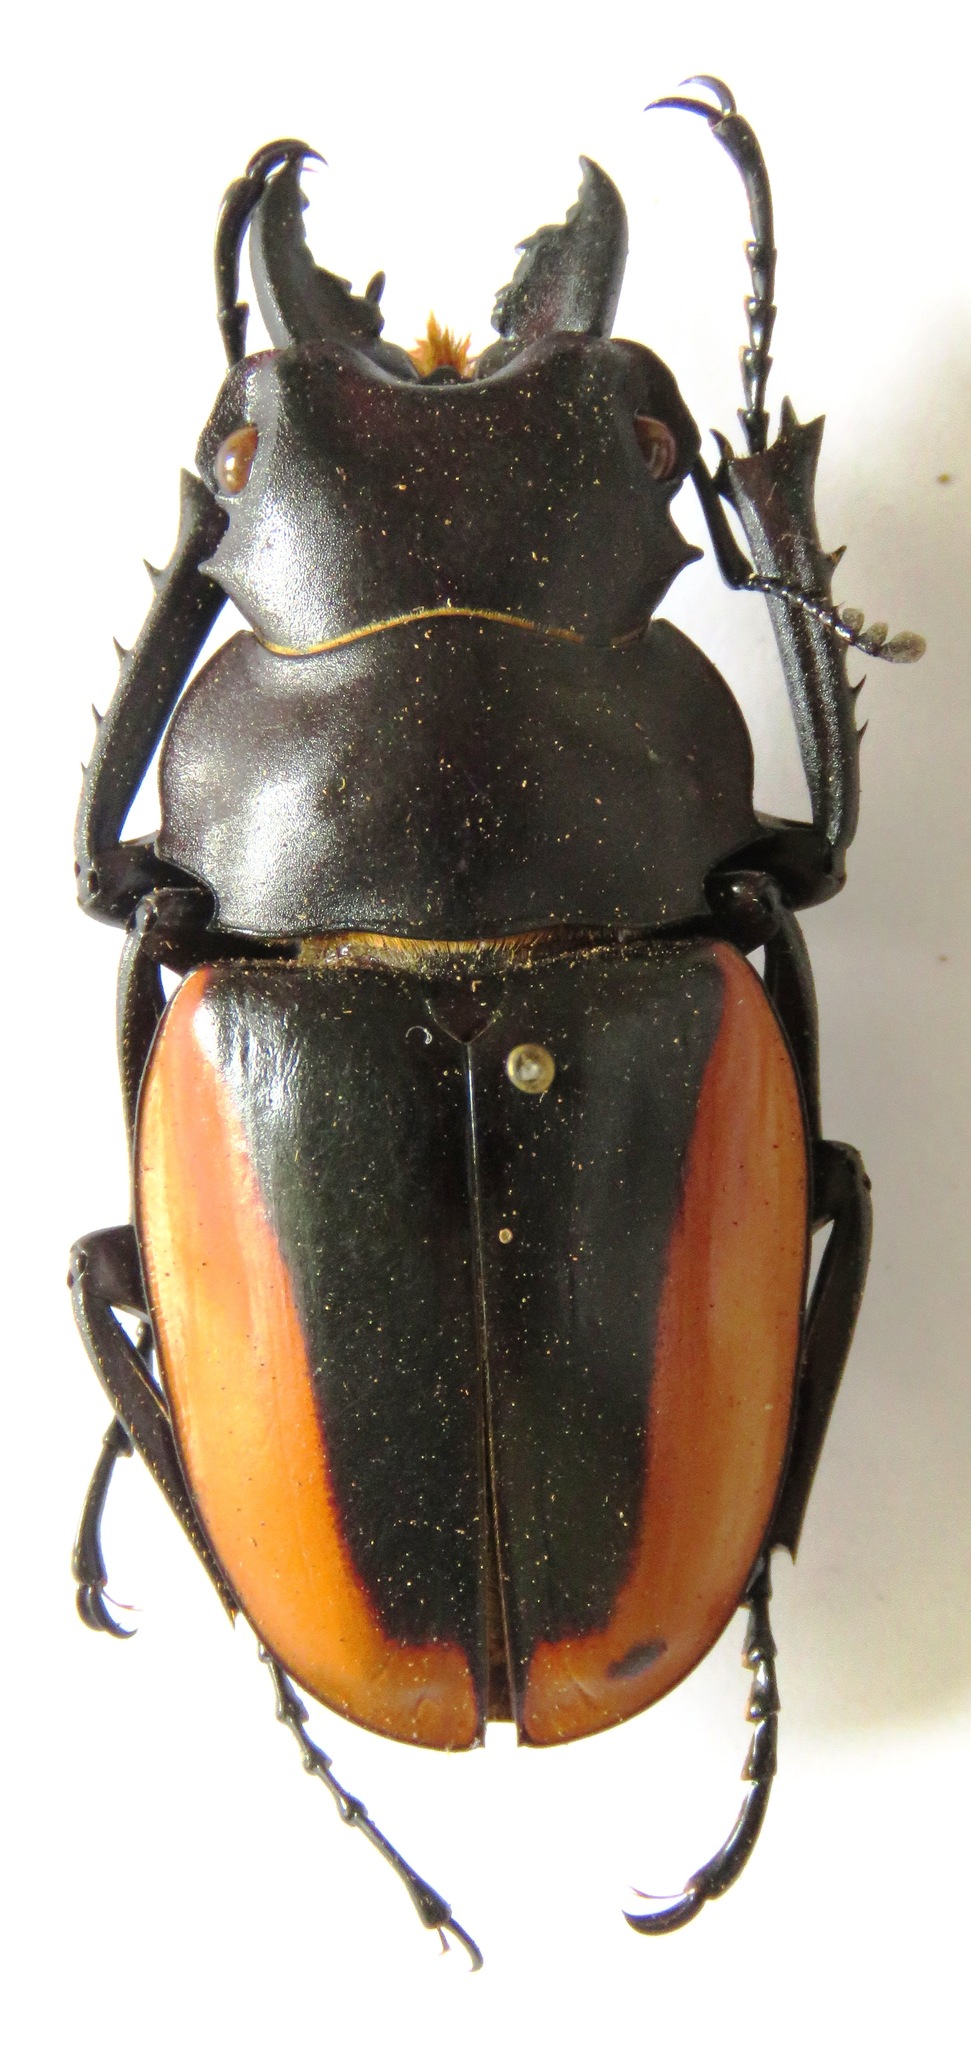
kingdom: Animalia
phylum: Arthropoda
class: Insecta
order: Coleoptera
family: Lucanidae
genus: Odontolabis
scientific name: Odontolabis cuvera
